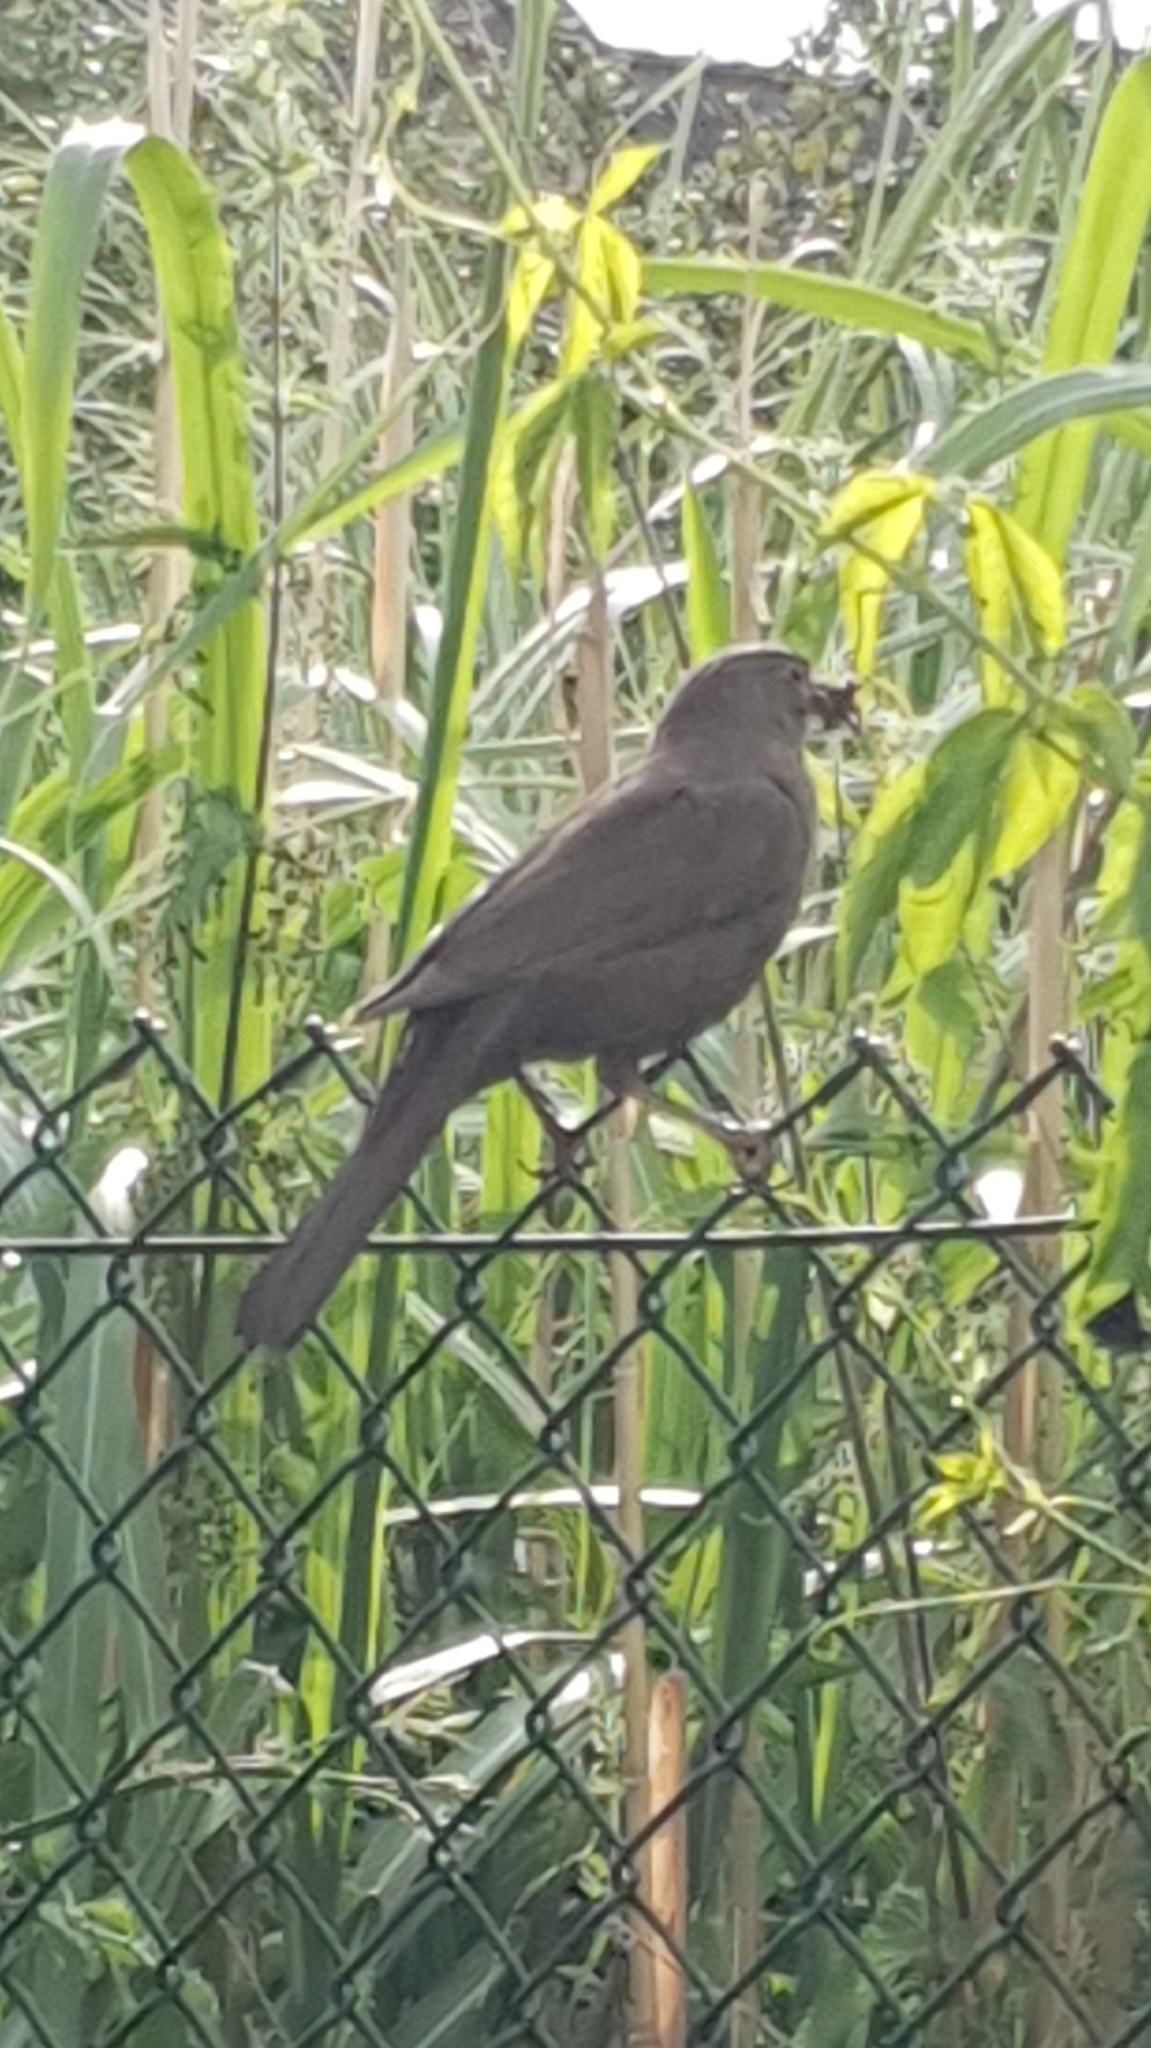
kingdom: Animalia
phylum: Chordata
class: Aves
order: Passeriformes
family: Turdidae
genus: Turdus
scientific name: Turdus merula
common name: Common blackbird
